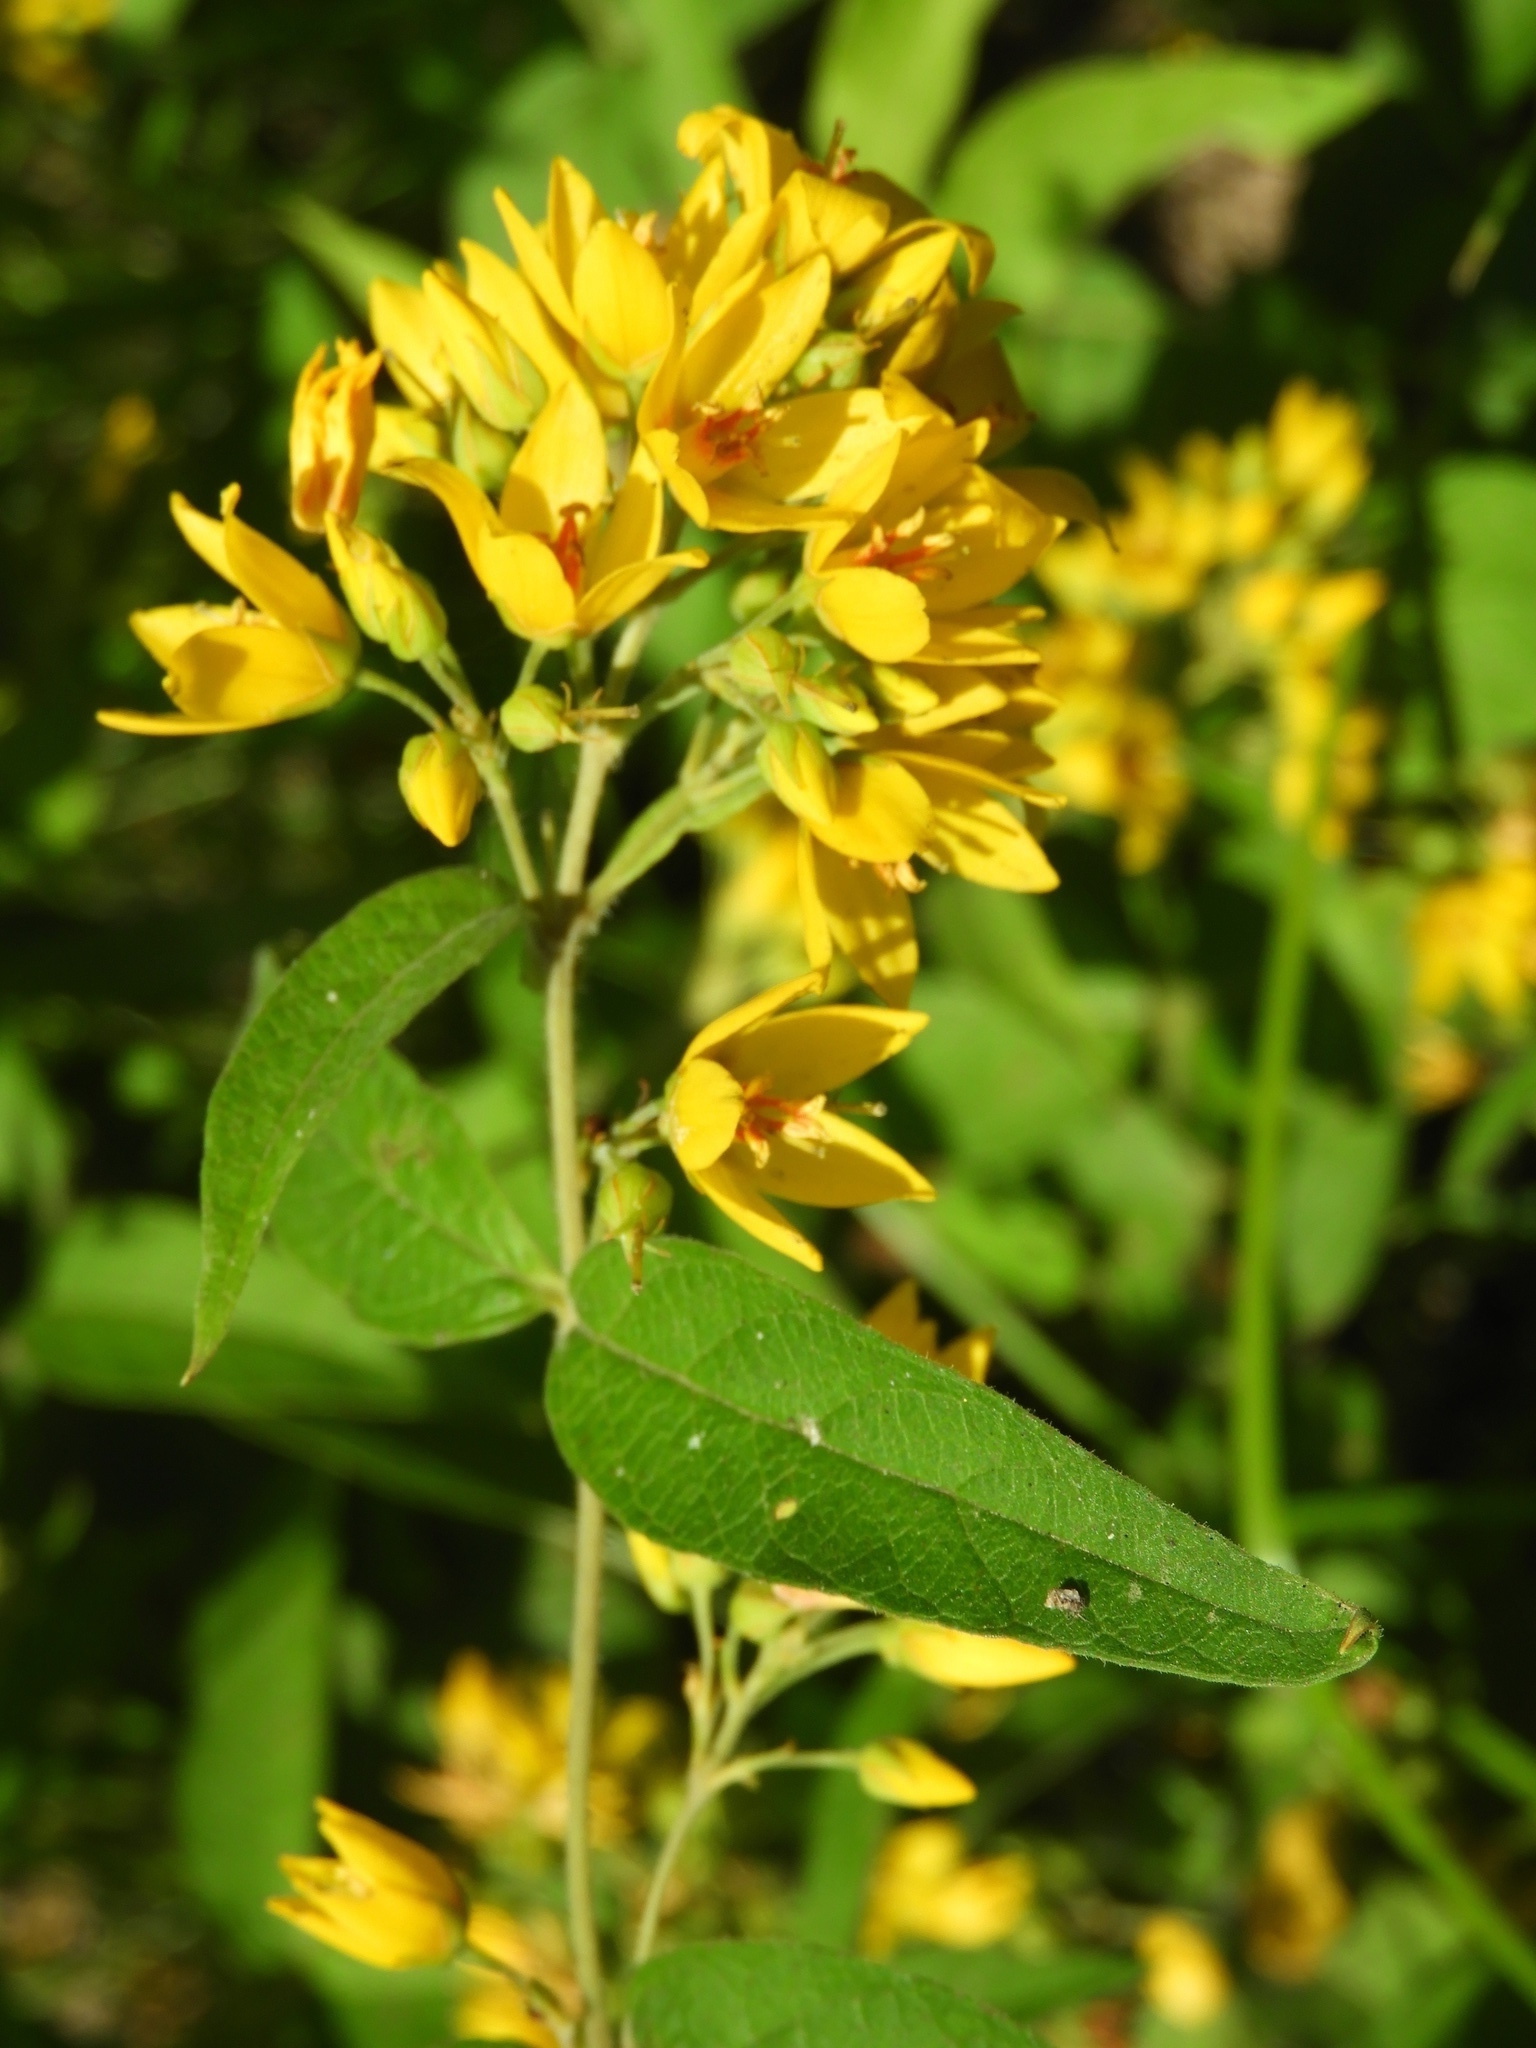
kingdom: Plantae
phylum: Tracheophyta
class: Magnoliopsida
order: Ericales
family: Primulaceae
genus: Lysimachia
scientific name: Lysimachia vulgaris
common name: Yellow loosestrife
